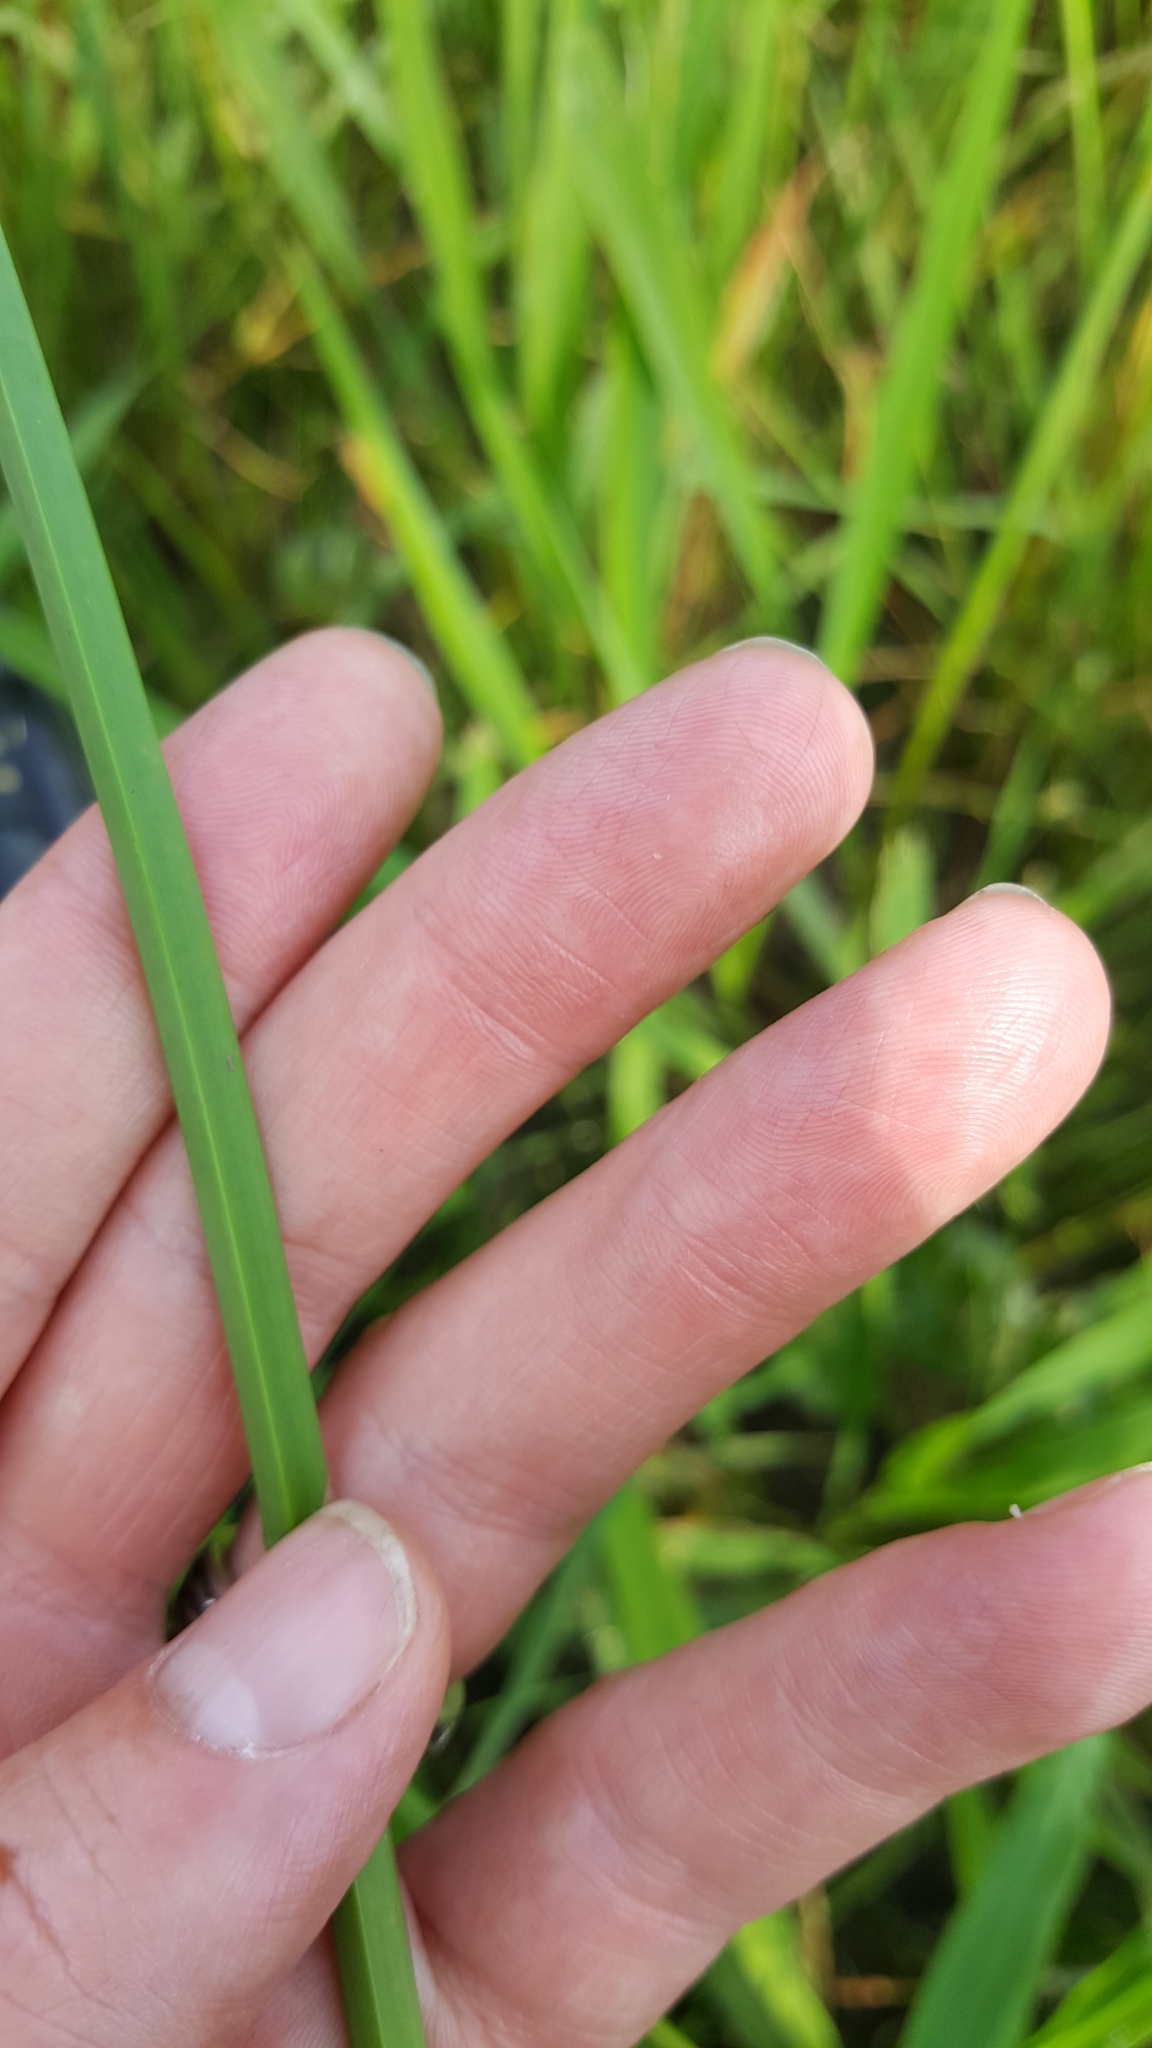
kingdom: Plantae
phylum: Tracheophyta
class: Liliopsida
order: Poales
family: Cyperaceae
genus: Schoenoplectus
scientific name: Schoenoplectus pungens
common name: Sharp club-rush
